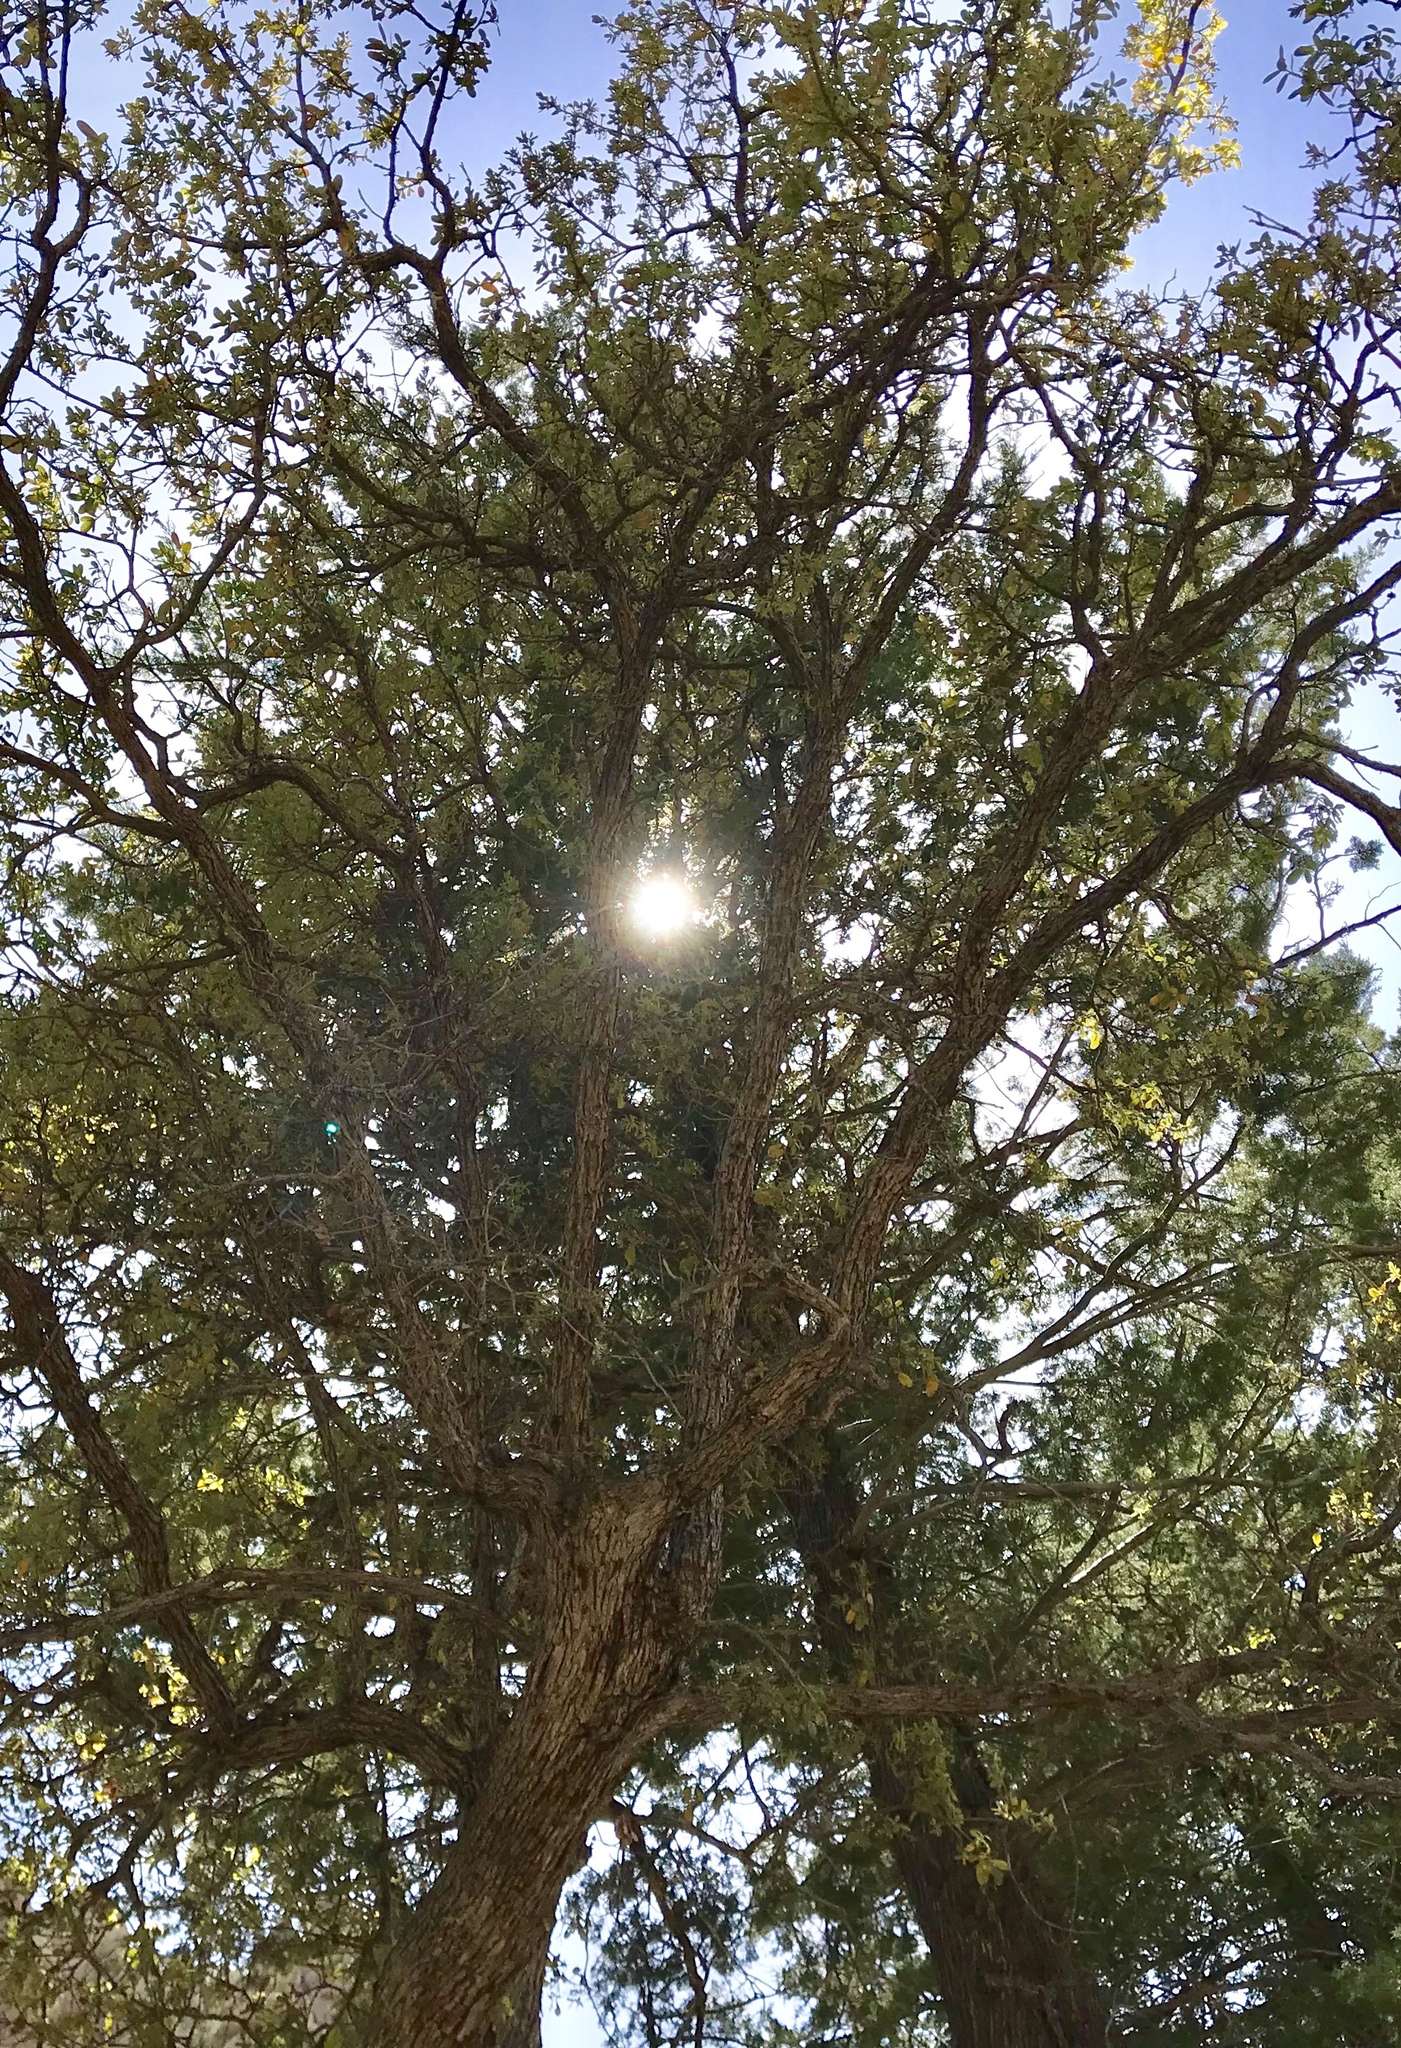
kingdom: Plantae
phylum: Tracheophyta
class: Magnoliopsida
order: Fagales
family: Fagaceae
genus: Quercus
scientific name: Quercus arizonica
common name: Arizona white oak
